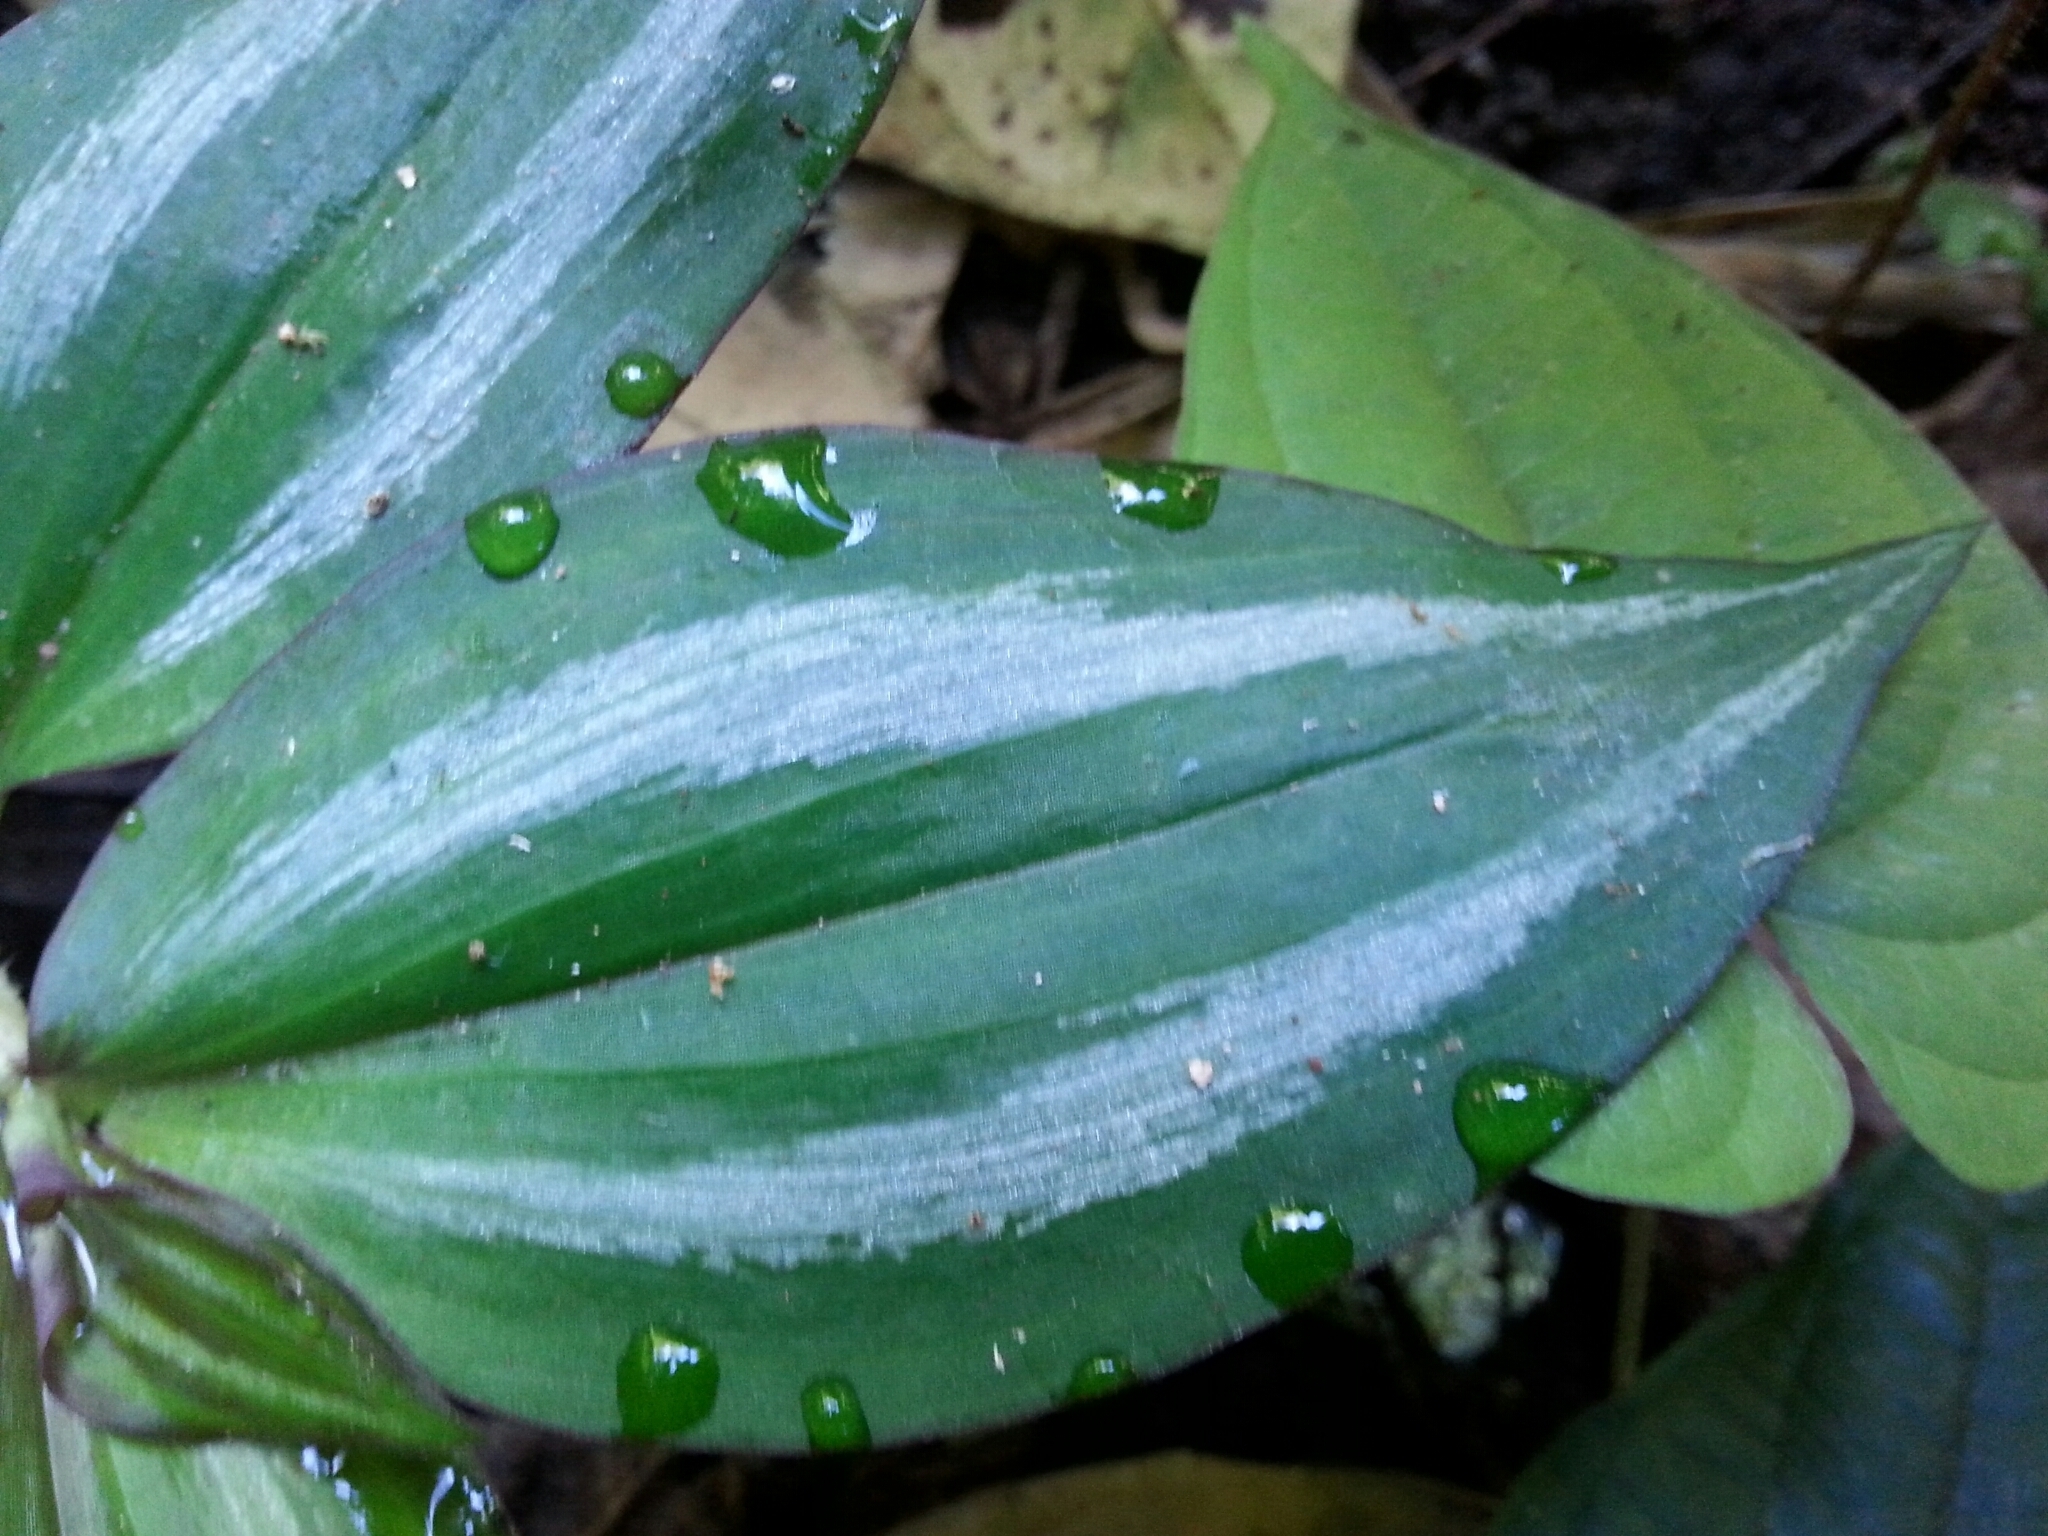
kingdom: Plantae
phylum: Tracheophyta
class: Liliopsida
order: Commelinales
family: Commelinaceae
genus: Tradescantia
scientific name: Tradescantia zebrina
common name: Inchplant
